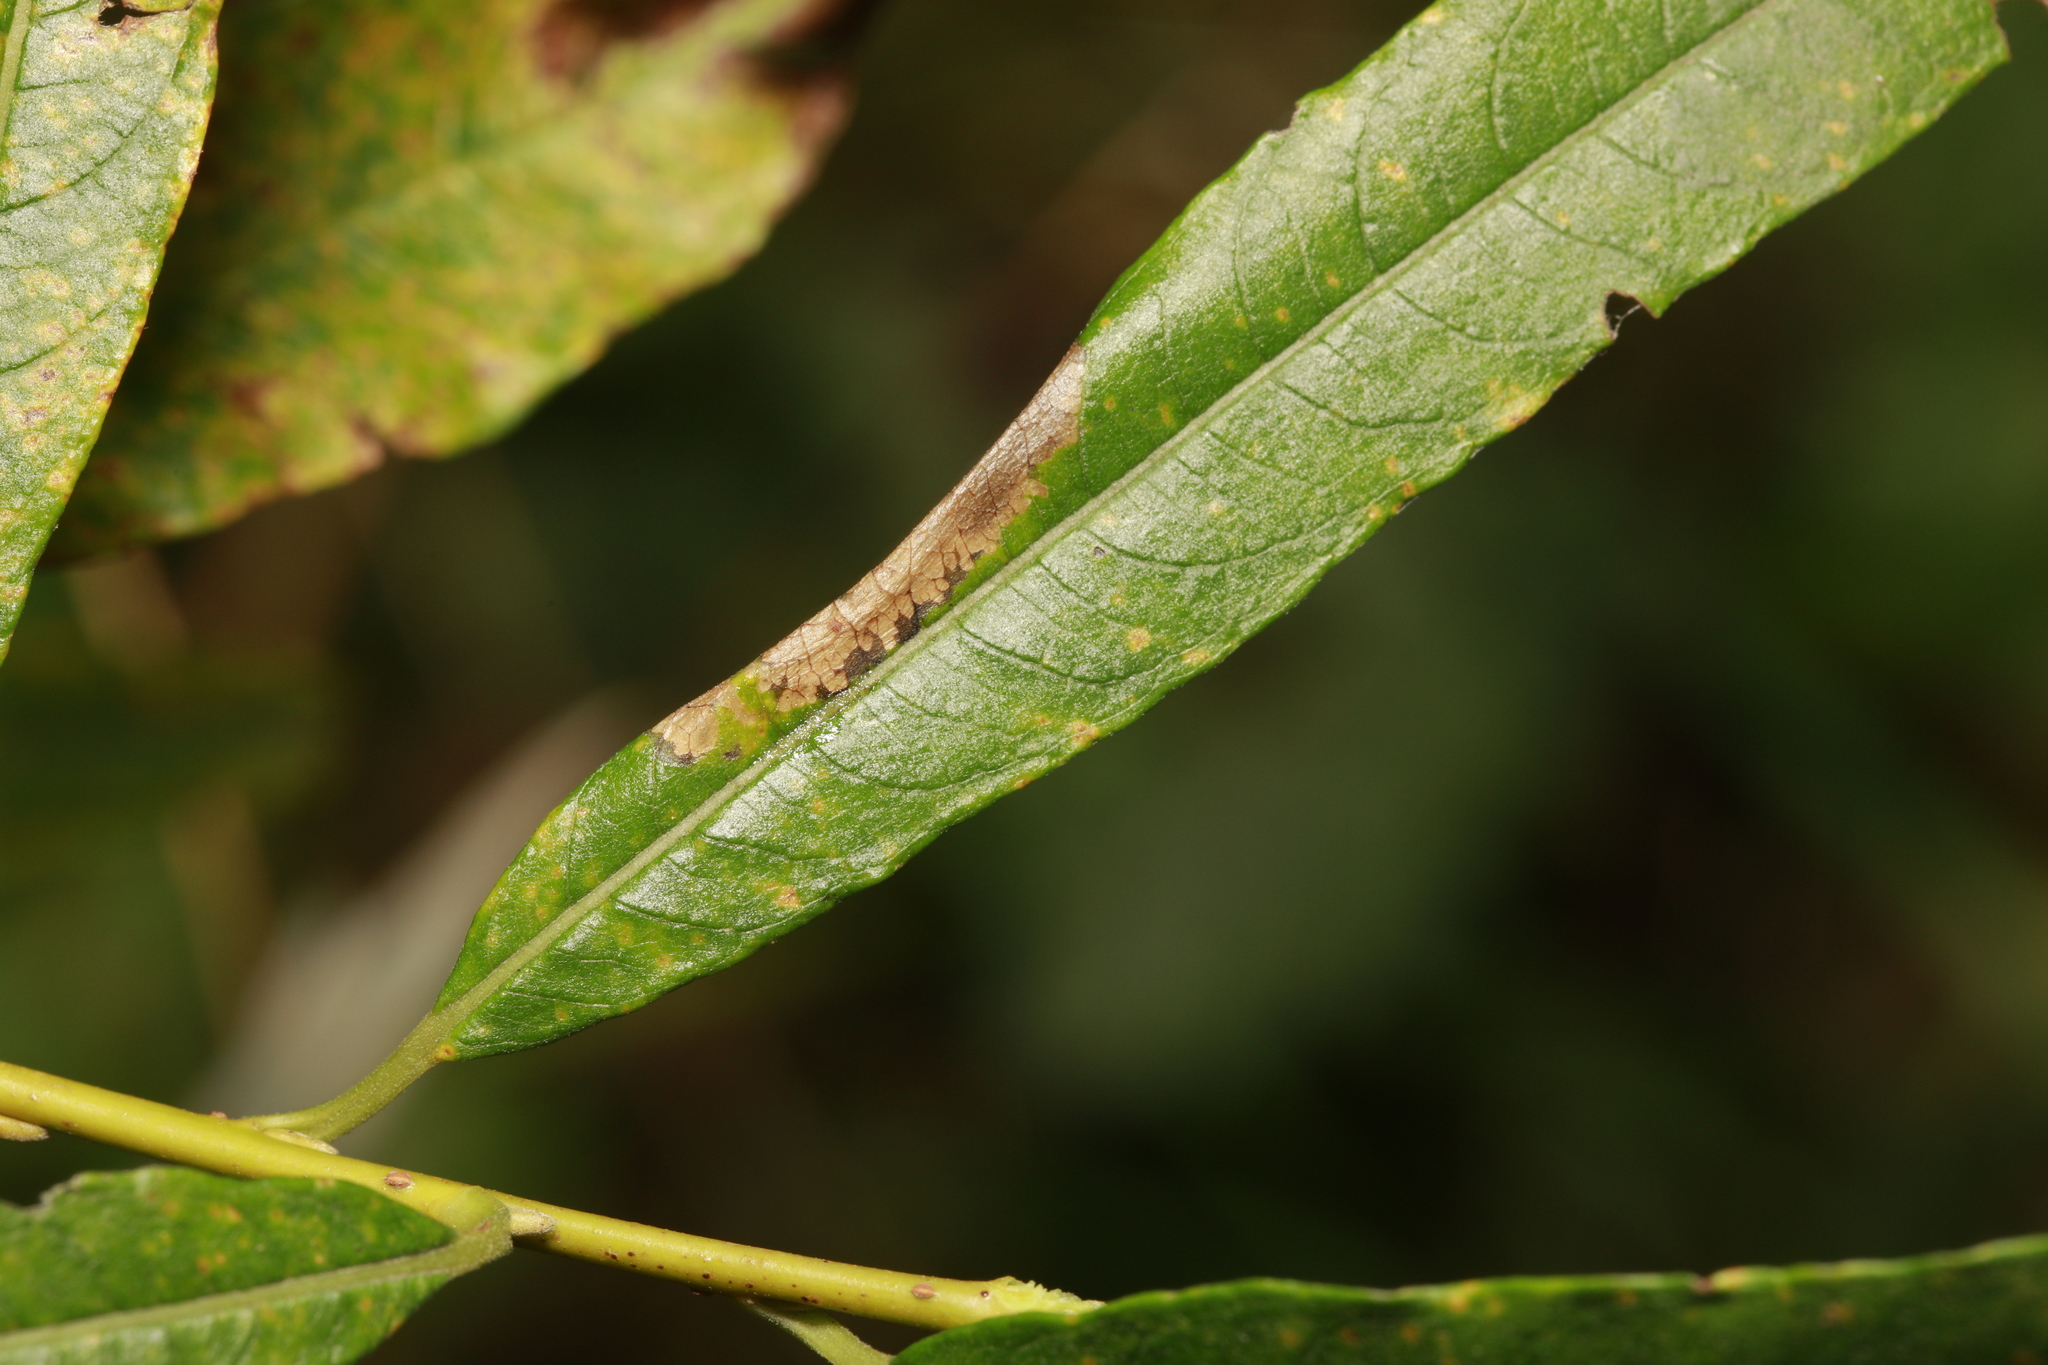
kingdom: Animalia
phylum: Arthropoda
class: Insecta
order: Lepidoptera
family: Gracillariidae
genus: Phyllonorycter
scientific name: Phyllonorycter salictella
